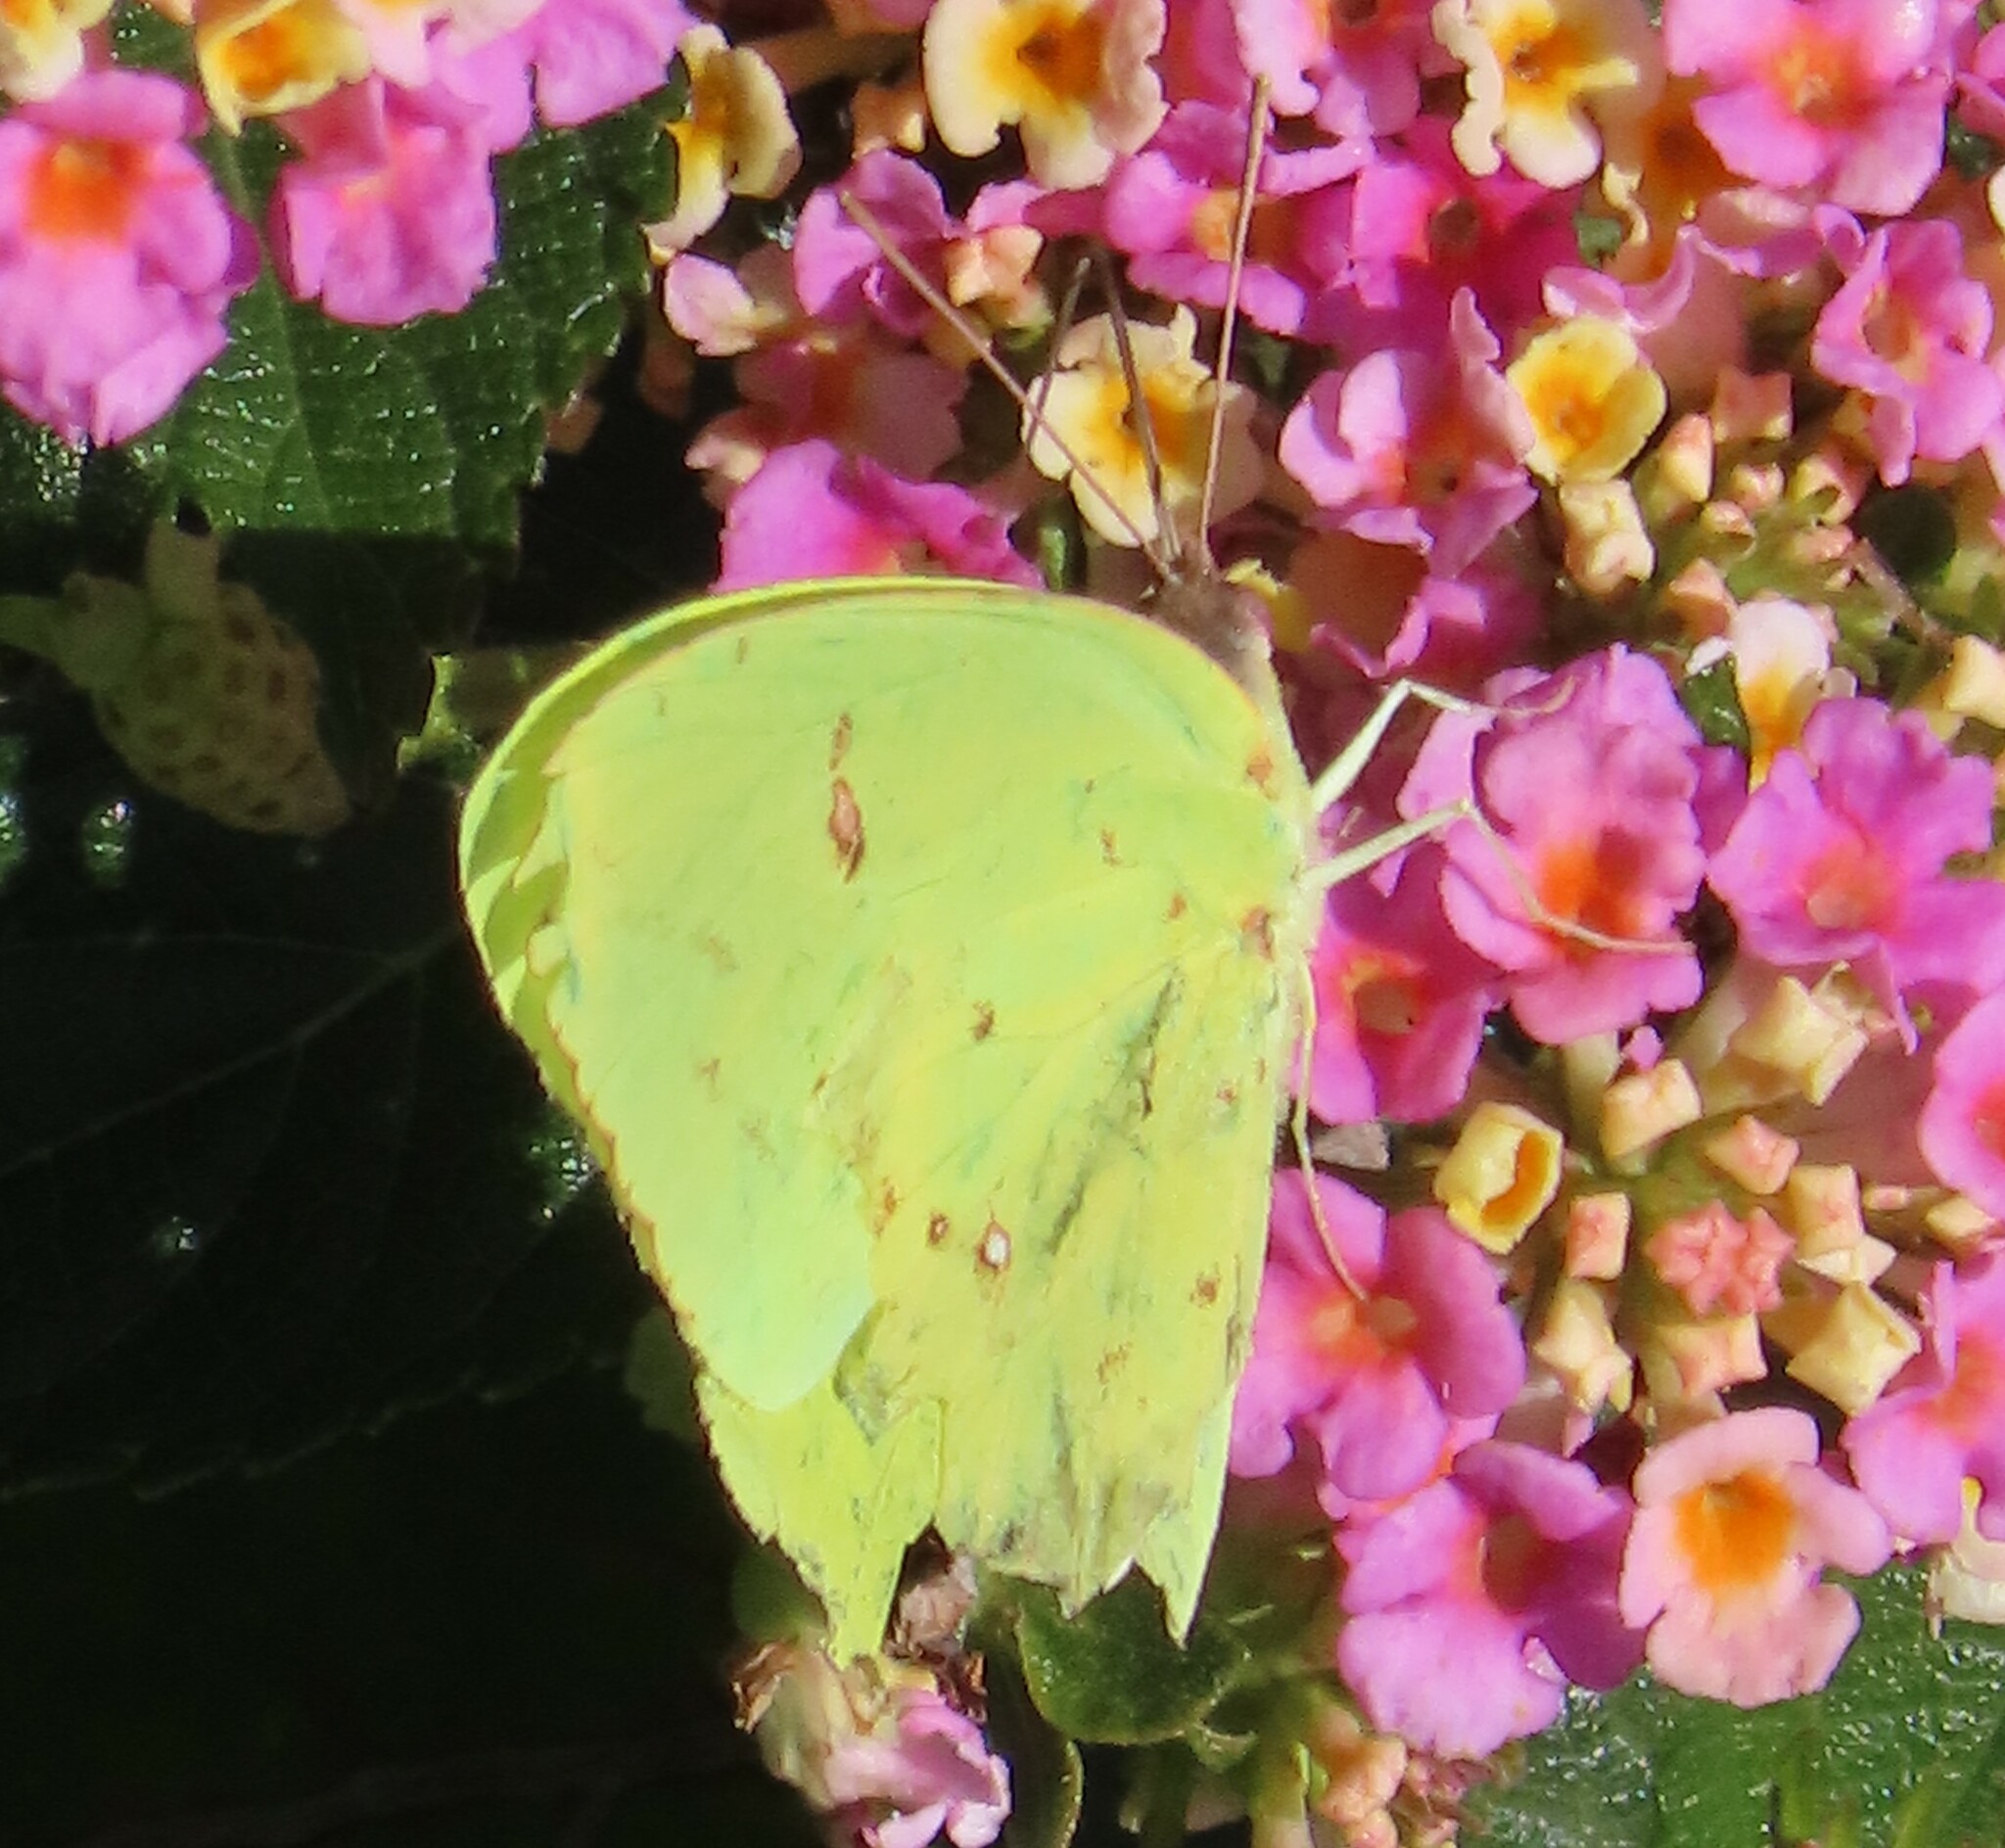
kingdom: Animalia
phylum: Arthropoda
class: Insecta
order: Lepidoptera
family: Pieridae
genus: Phoebis
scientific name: Phoebis sennae
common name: Cloudless sulphur
